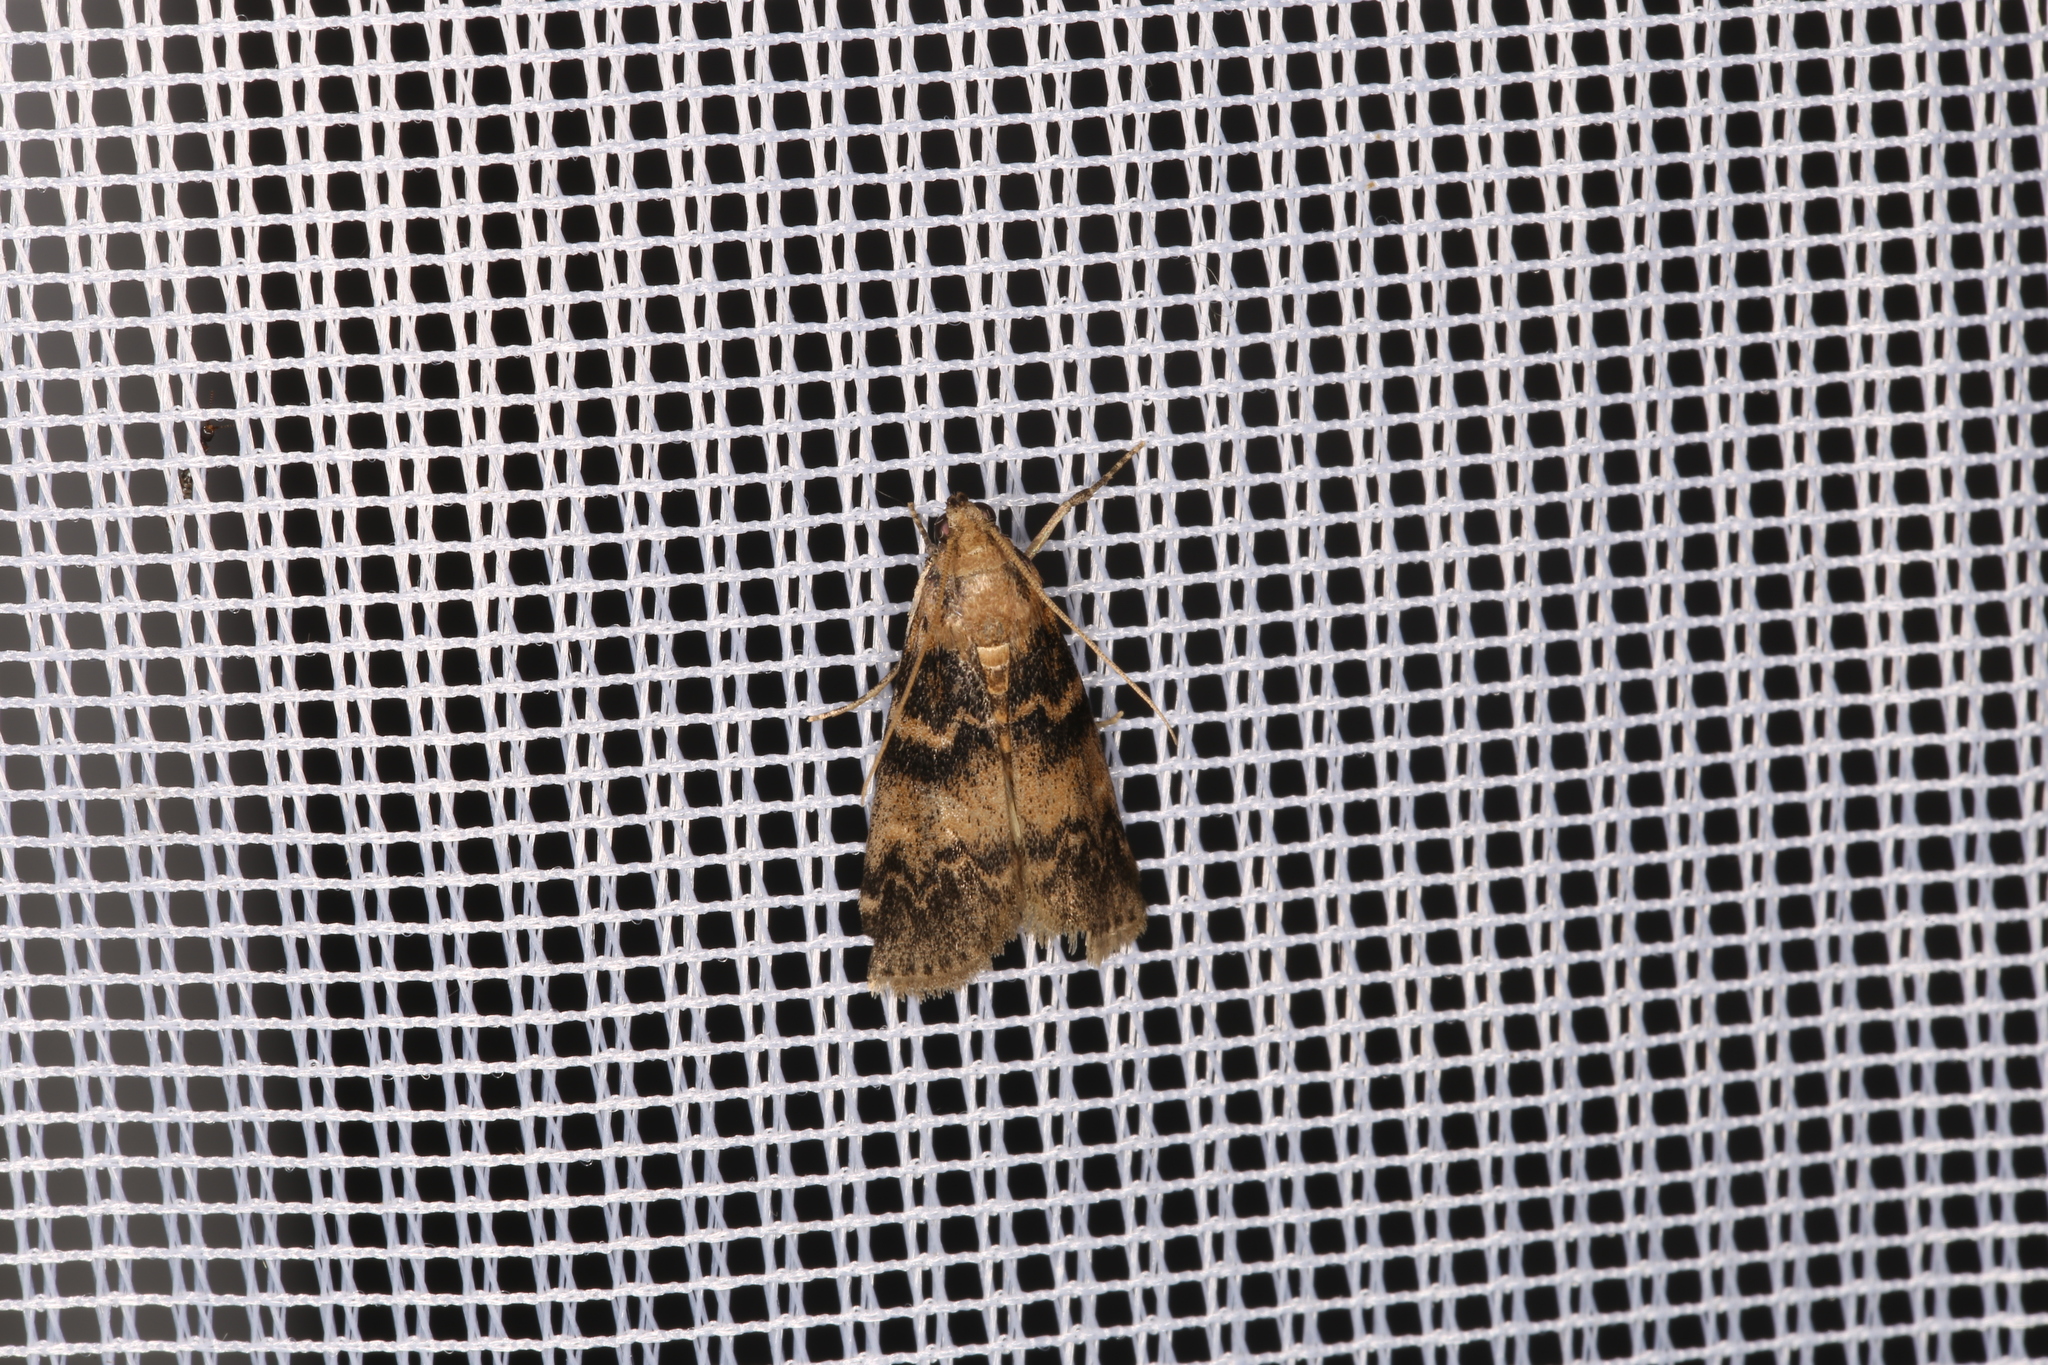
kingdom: Animalia
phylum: Arthropoda
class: Insecta
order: Lepidoptera
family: Pyralidae
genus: Euzophera
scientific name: Euzophera pinguis
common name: Ash-bark knot-horn
